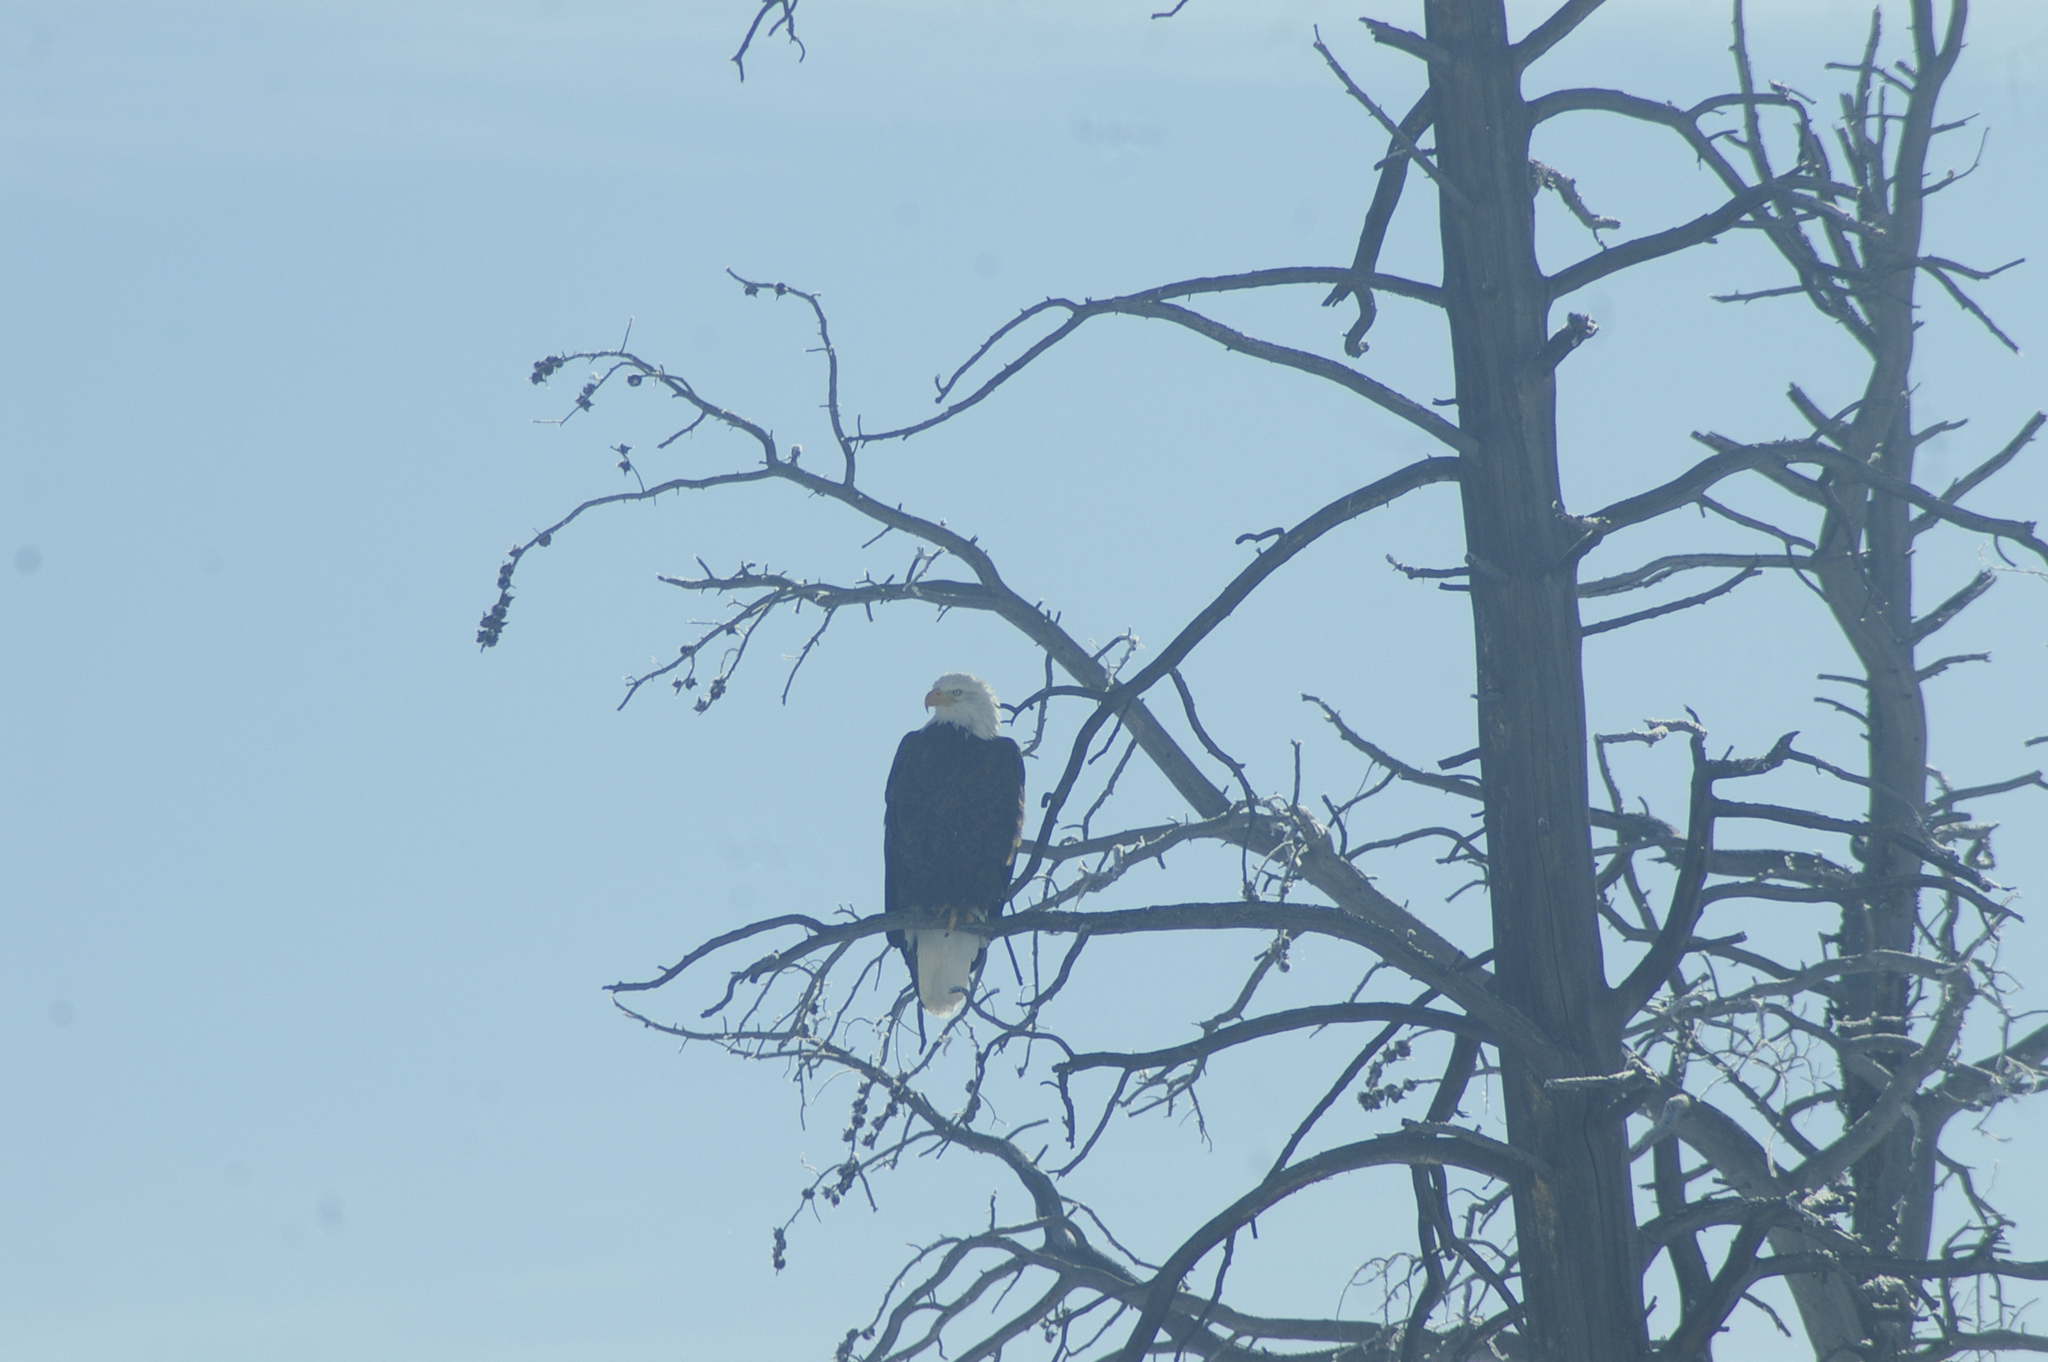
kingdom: Animalia
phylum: Chordata
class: Aves
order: Accipitriformes
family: Accipitridae
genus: Haliaeetus
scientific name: Haliaeetus leucocephalus
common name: Bald eagle
